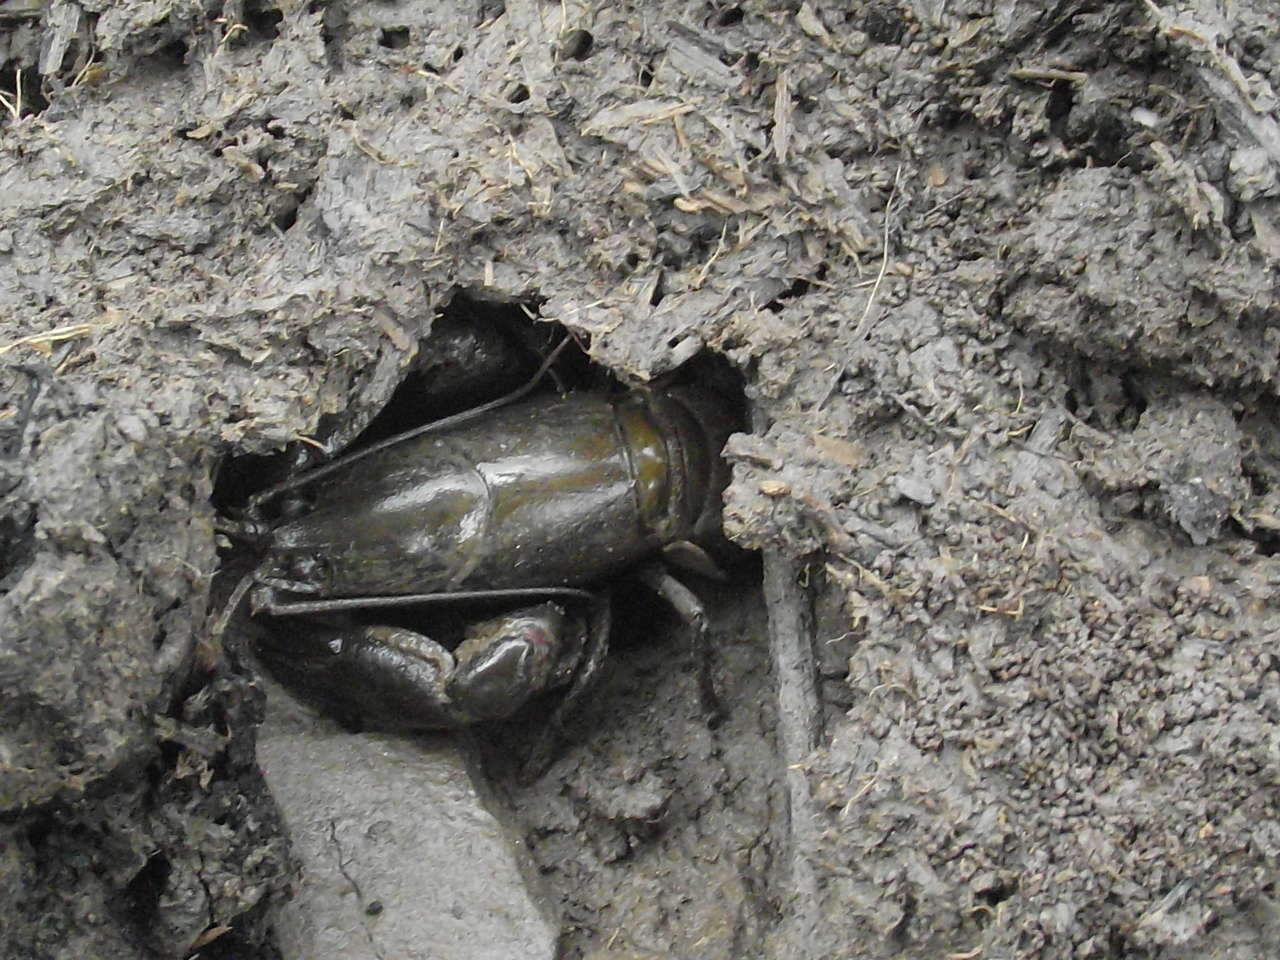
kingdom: Animalia
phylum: Arthropoda
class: Malacostraca
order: Decapoda
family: Parastacidae
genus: Cherax
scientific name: Cherax destructor
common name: Yabby
